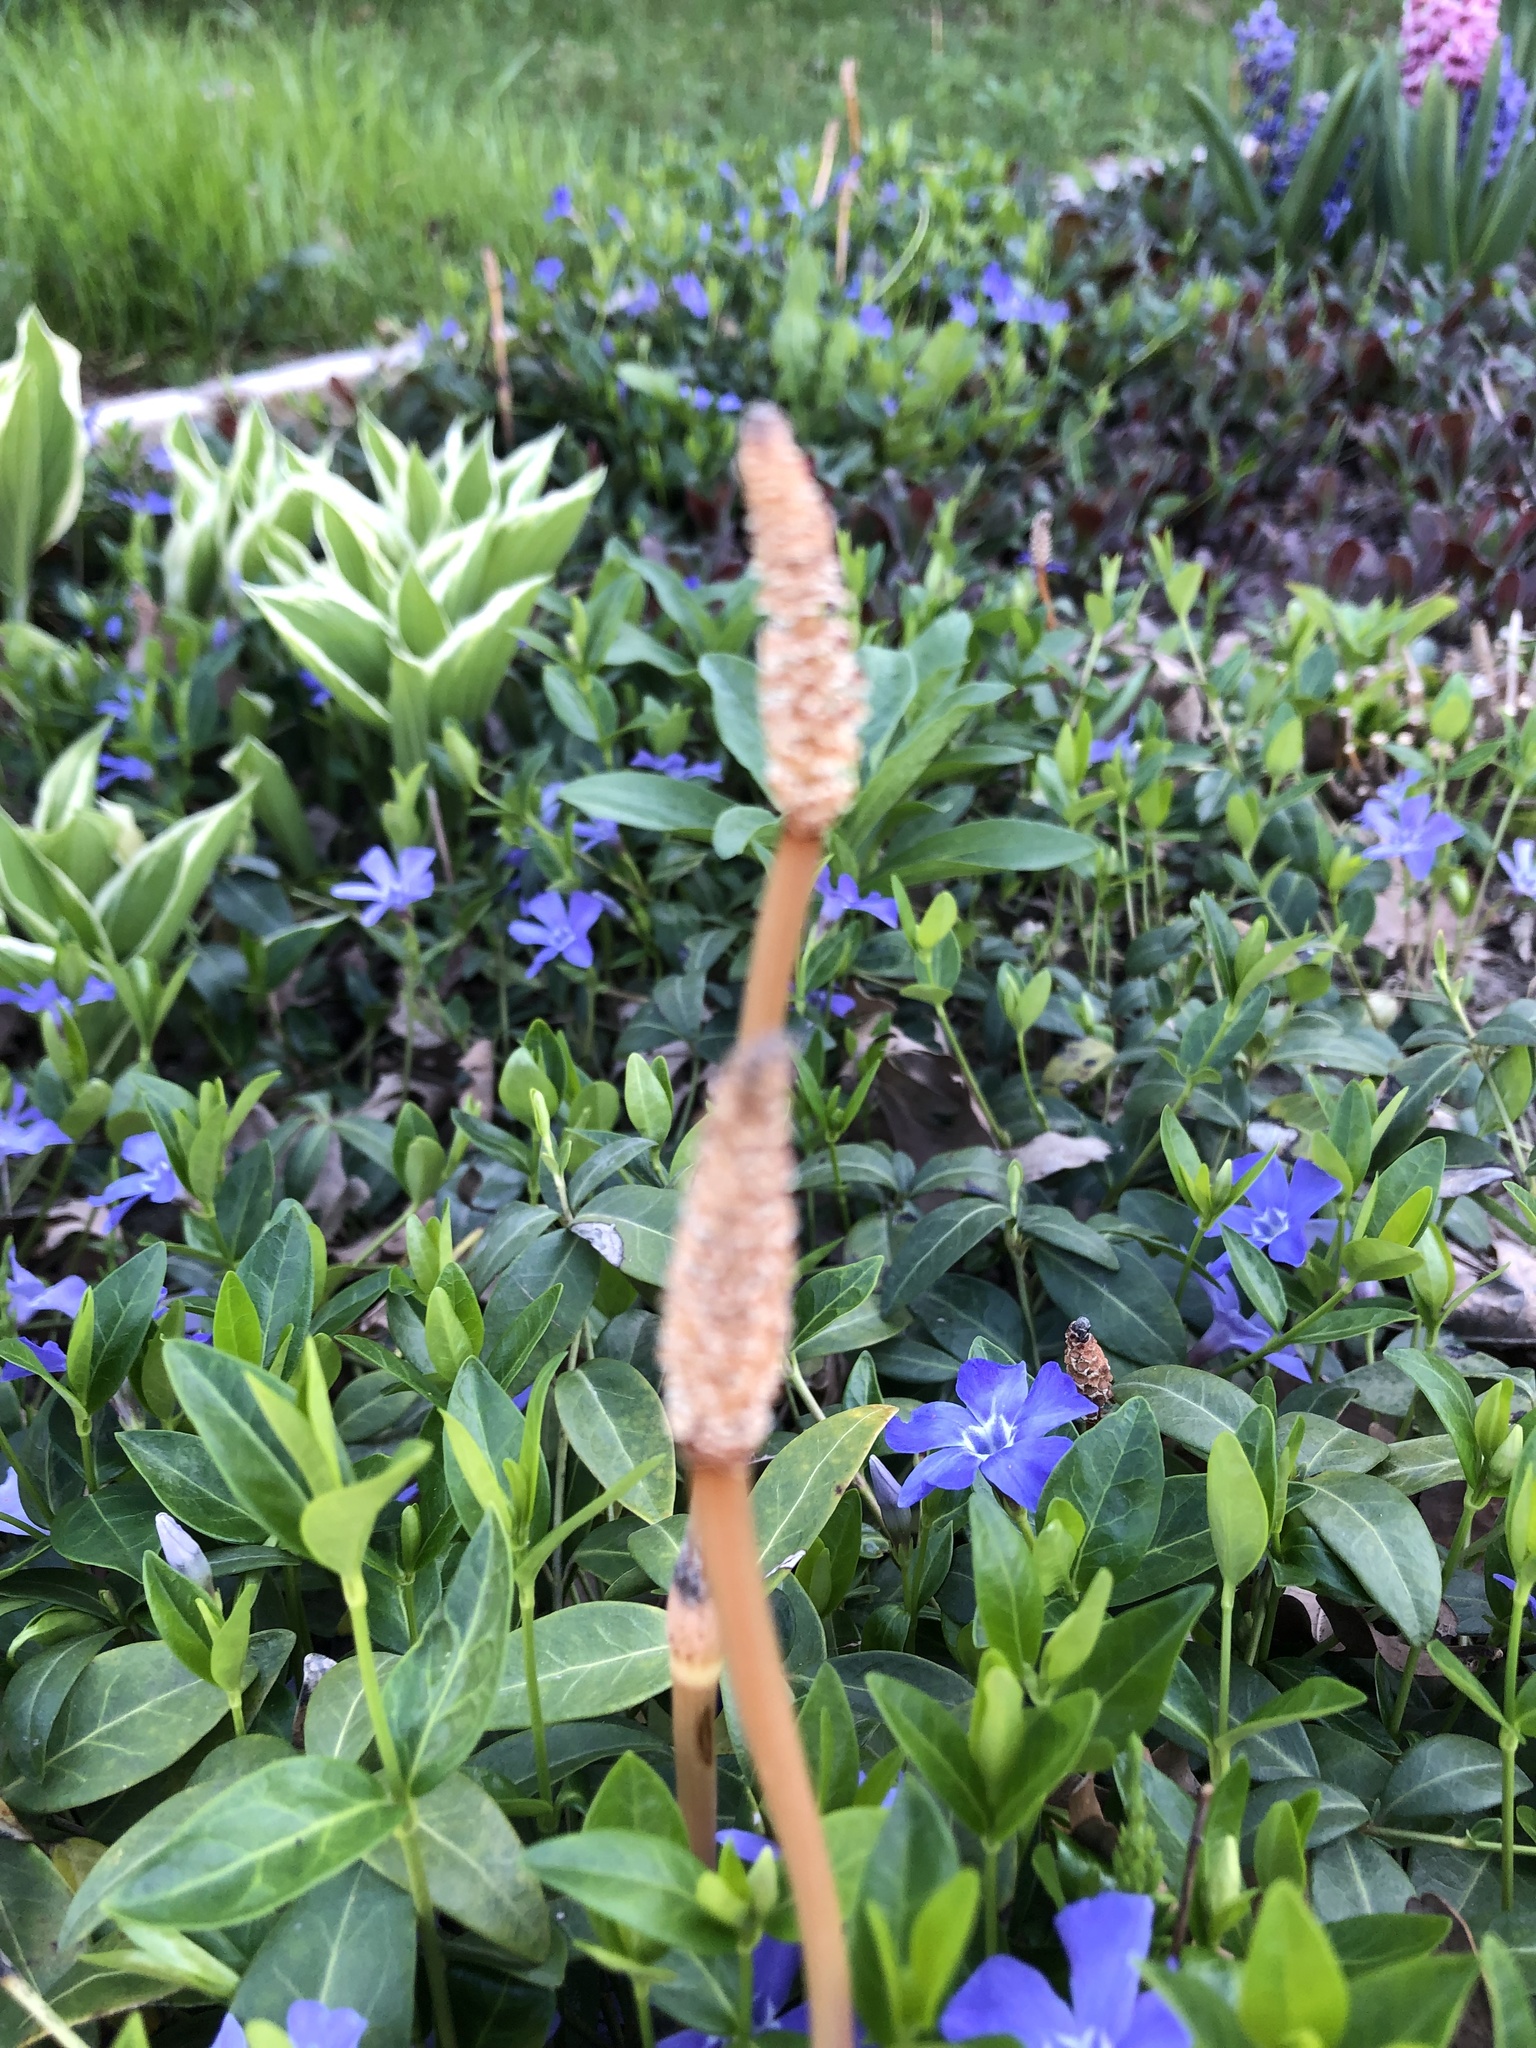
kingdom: Plantae
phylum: Tracheophyta
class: Polypodiopsida
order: Equisetales
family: Equisetaceae
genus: Equisetum
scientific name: Equisetum arvense
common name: Field horsetail
